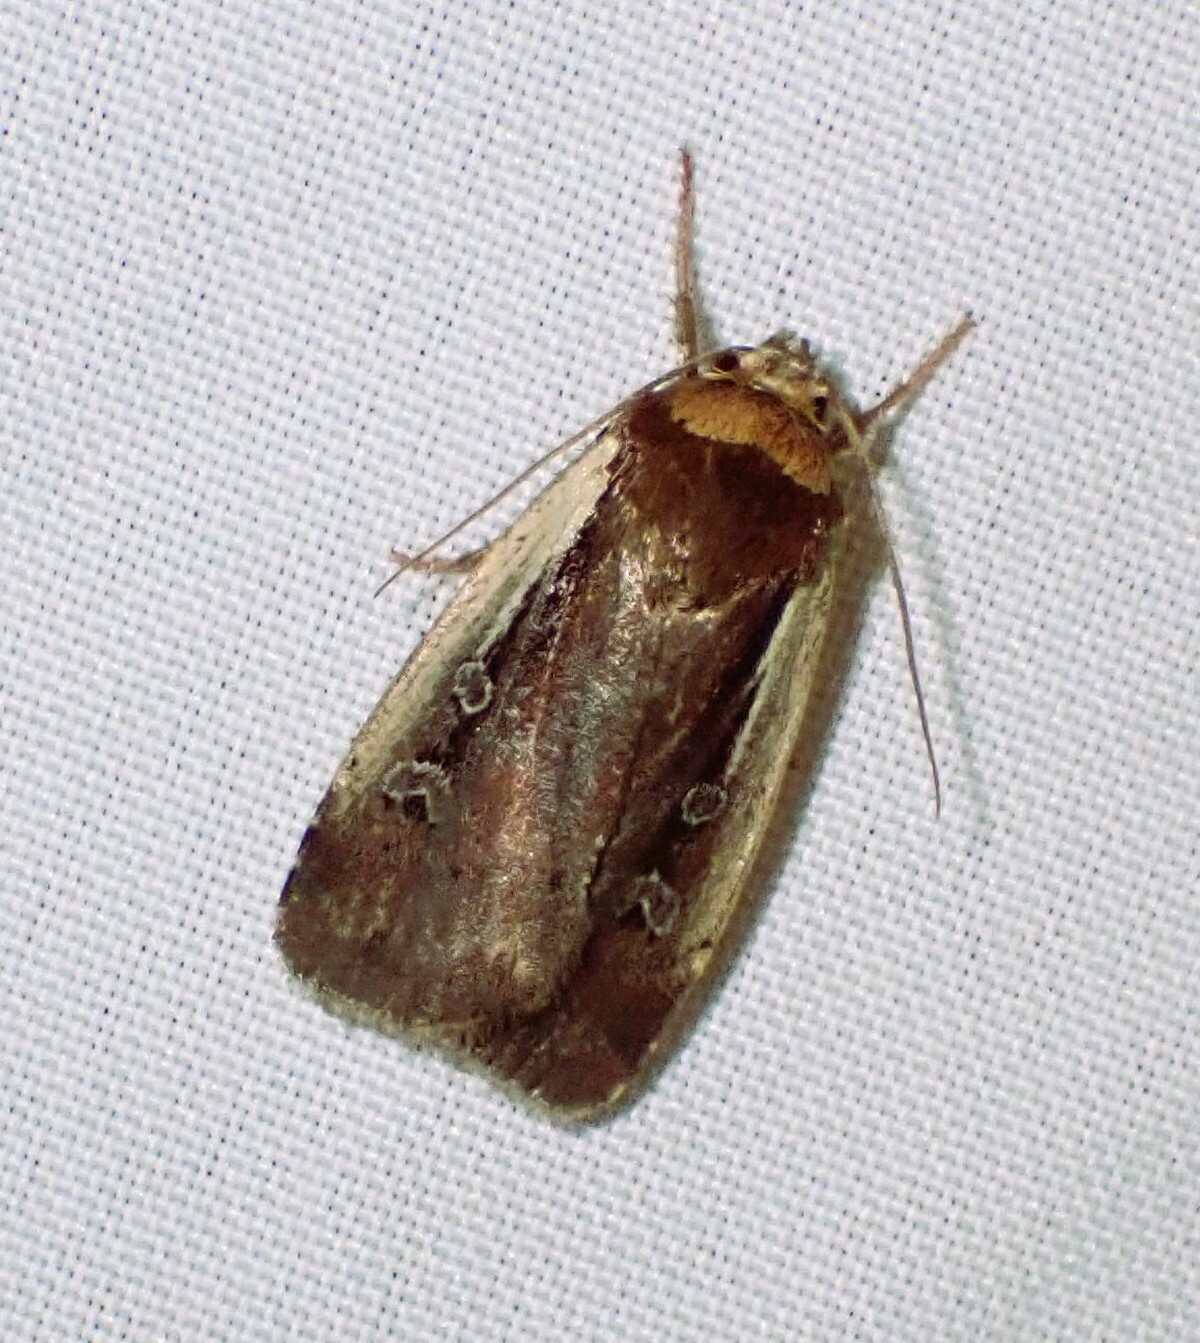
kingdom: Animalia
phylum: Arthropoda
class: Insecta
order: Lepidoptera
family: Noctuidae
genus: Ochropleura
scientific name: Ochropleura implecta
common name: Flame-shouldered dart
